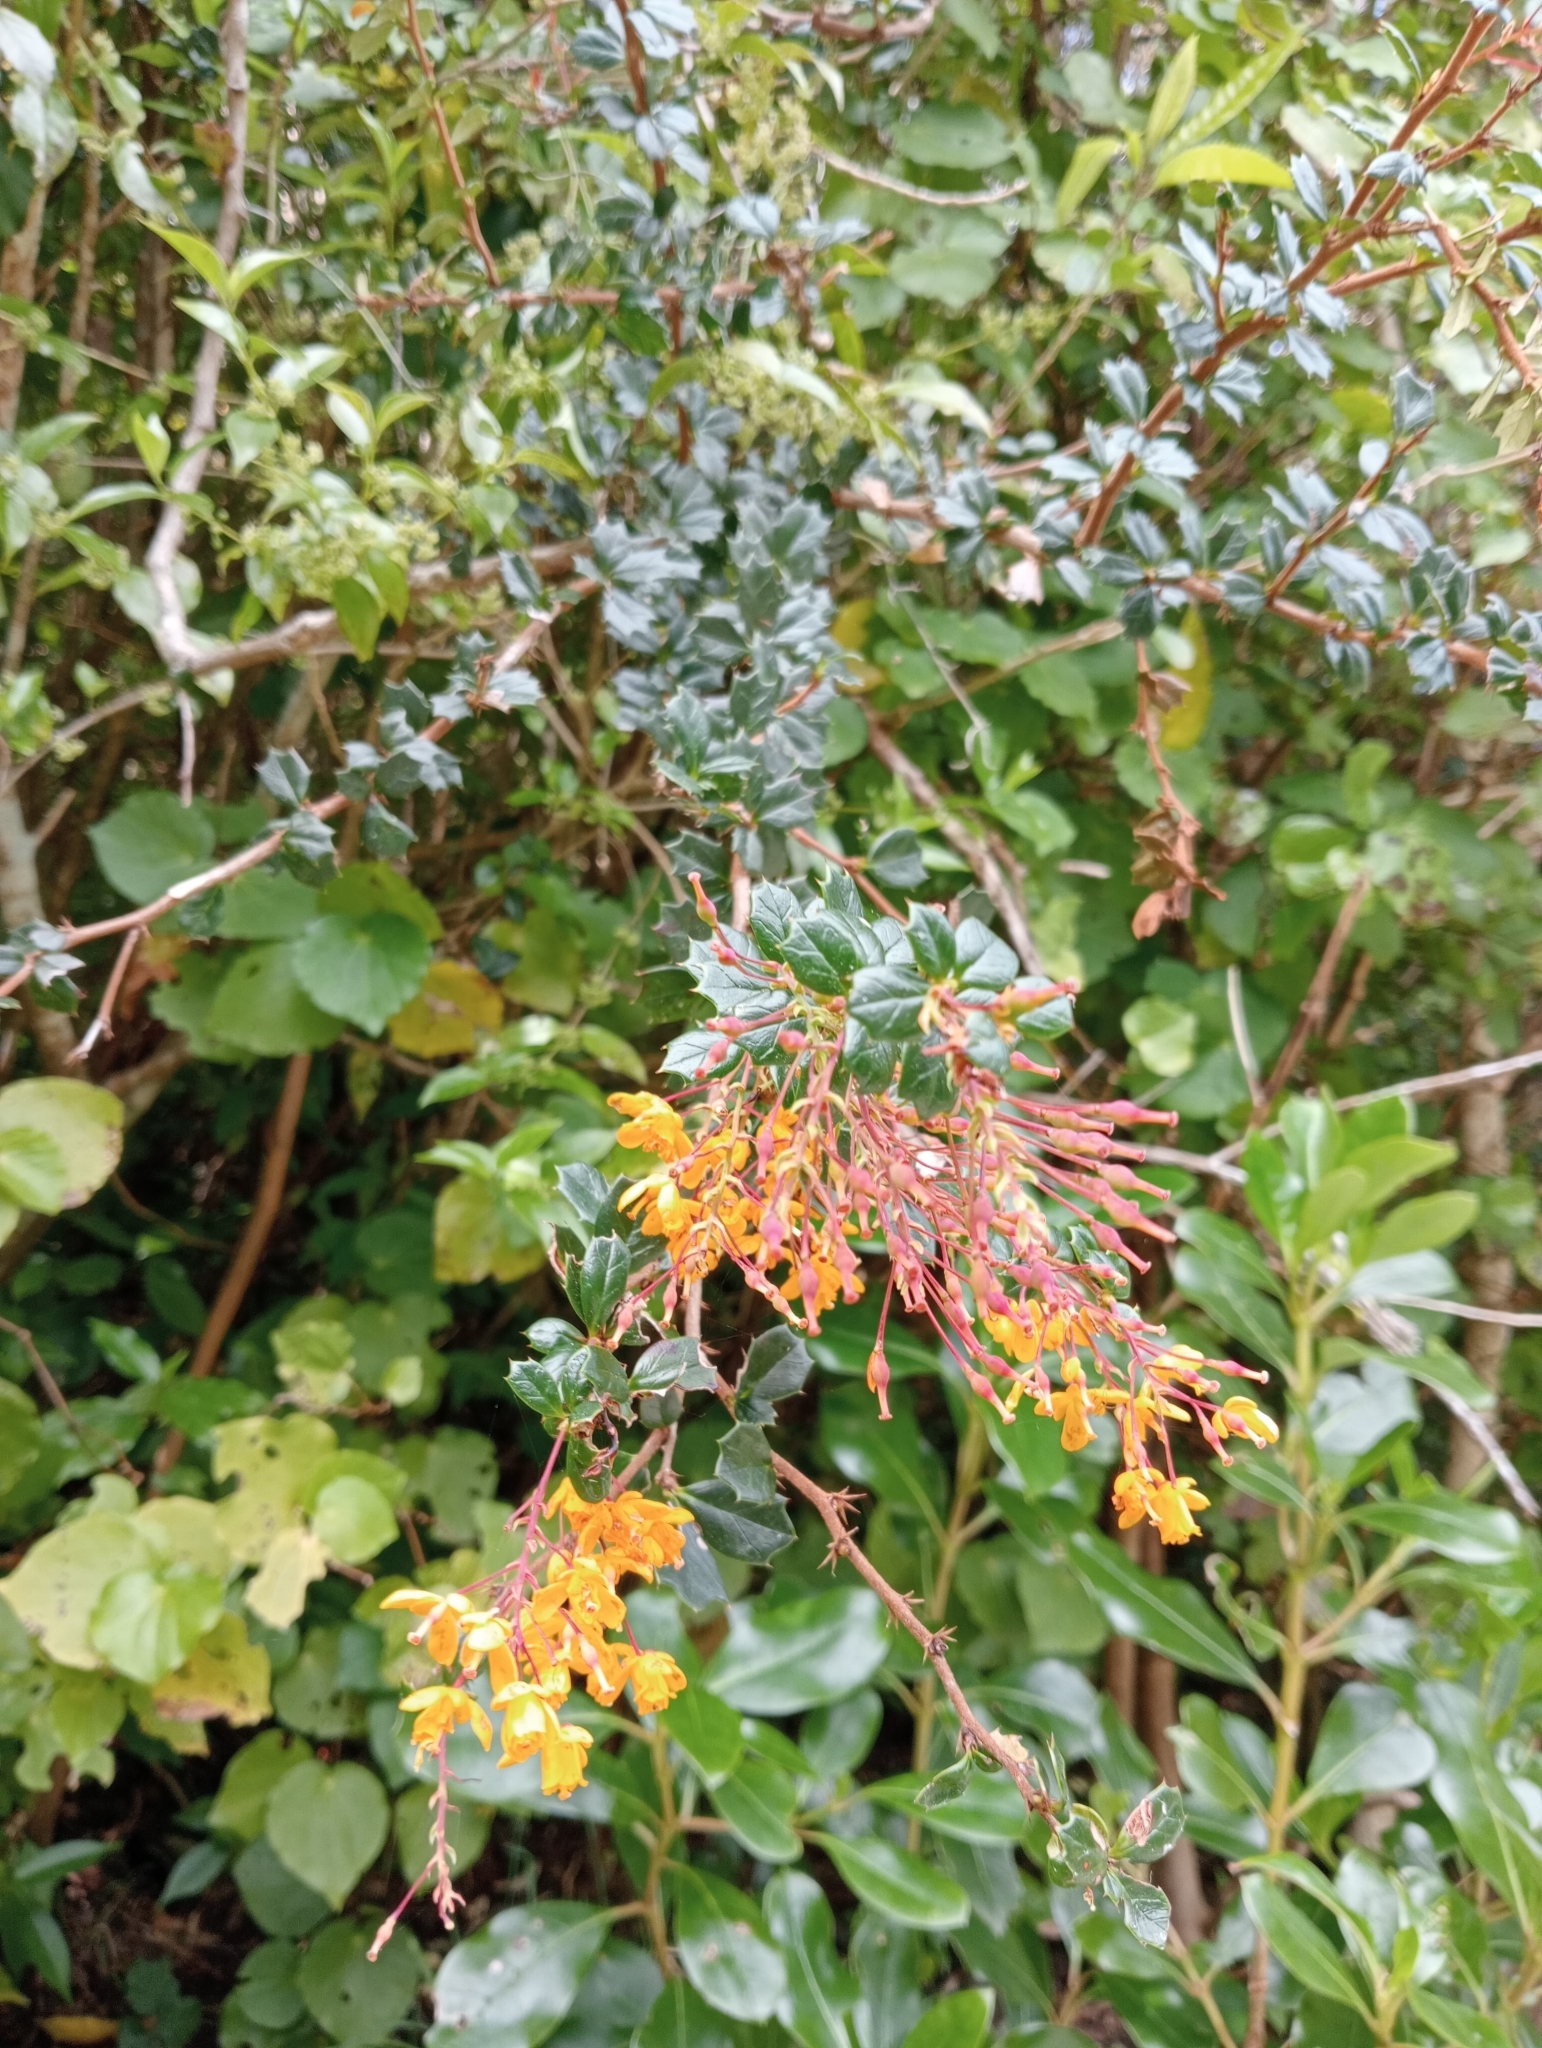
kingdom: Plantae
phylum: Tracheophyta
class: Magnoliopsida
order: Ranunculales
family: Berberidaceae
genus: Berberis
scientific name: Berberis darwinii
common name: Darwin's barberry
